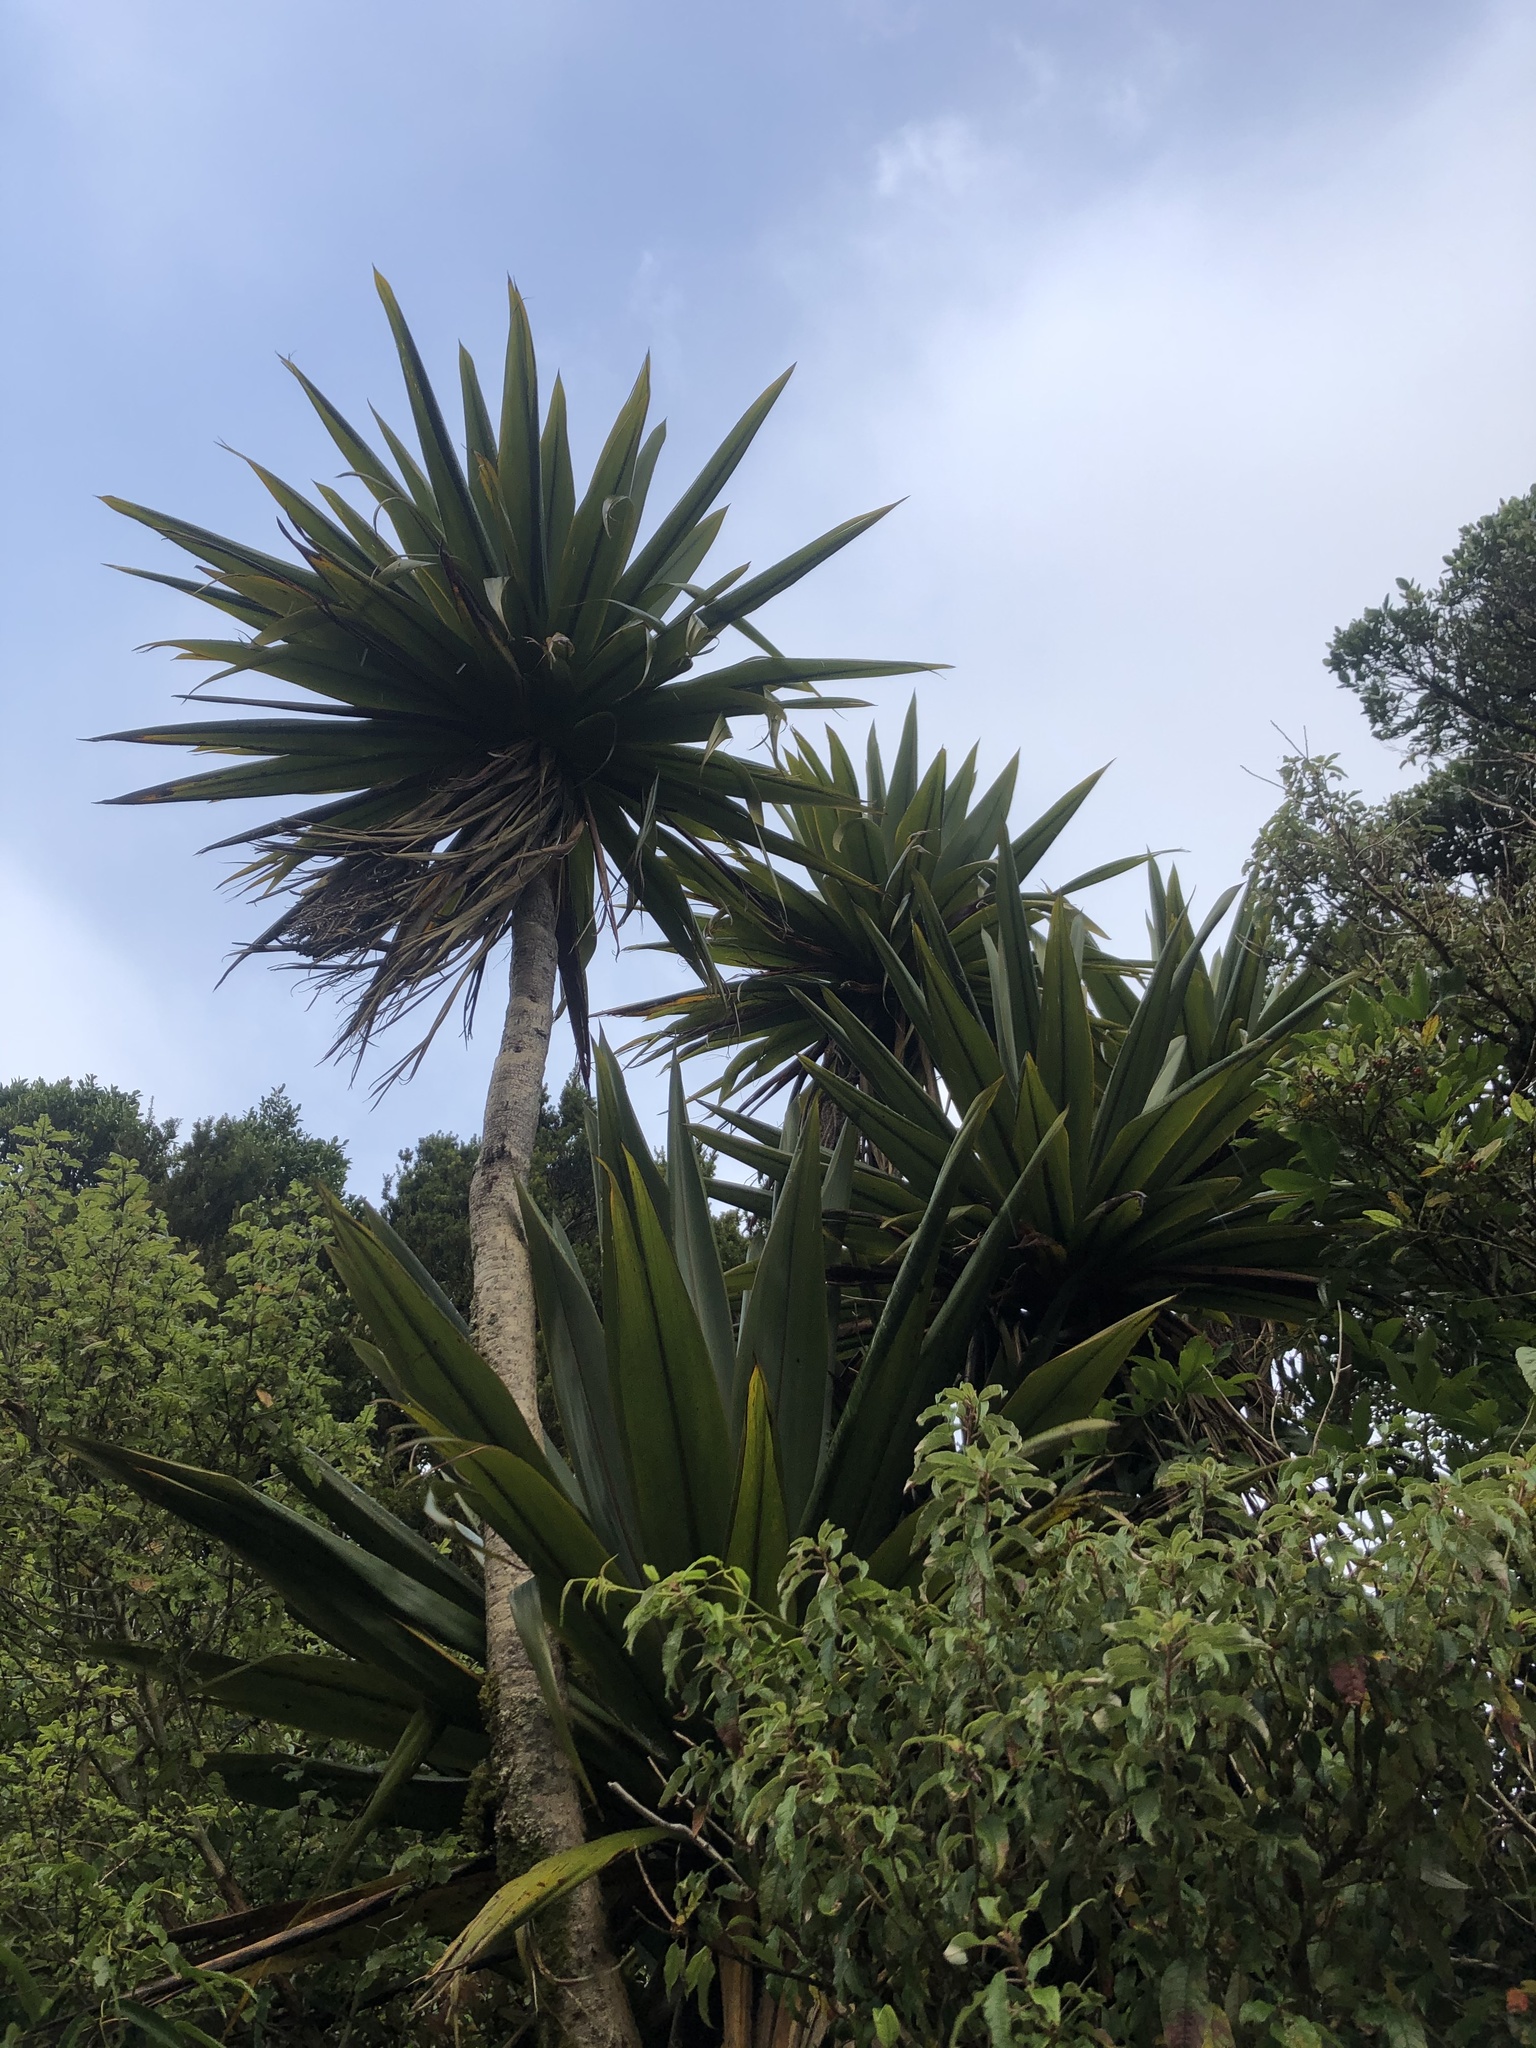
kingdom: Plantae
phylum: Tracheophyta
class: Liliopsida
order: Asparagales
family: Asparagaceae
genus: Cordyline
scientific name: Cordyline indivisa
